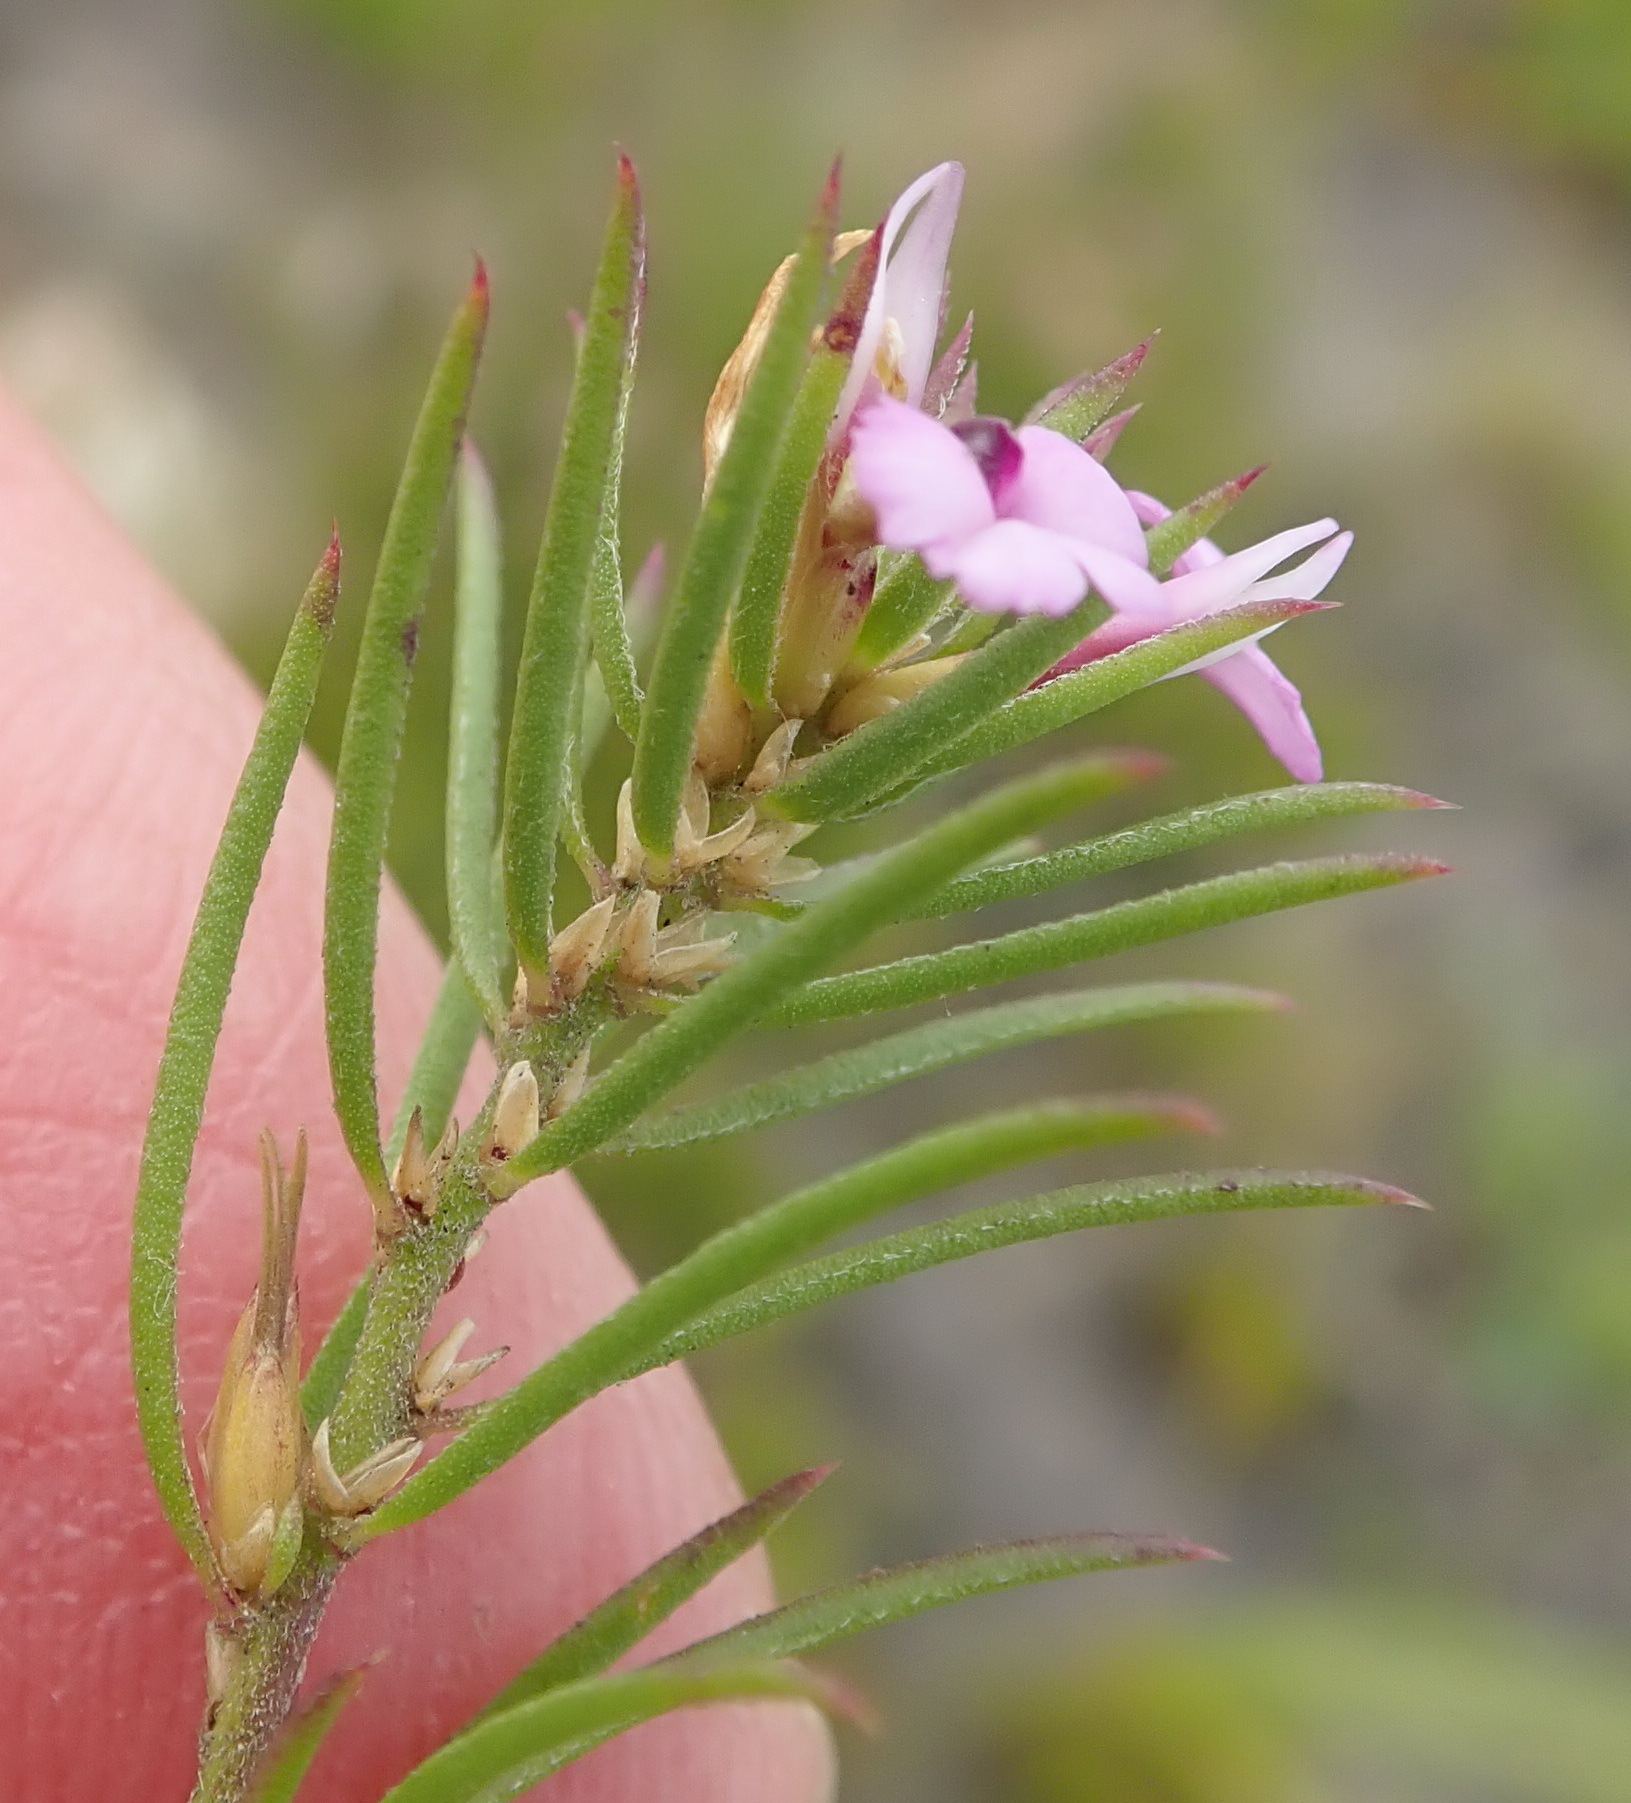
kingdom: Plantae
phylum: Tracheophyta
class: Magnoliopsida
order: Fabales
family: Polygalaceae
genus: Muraltia
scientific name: Muraltia knysnaensis
